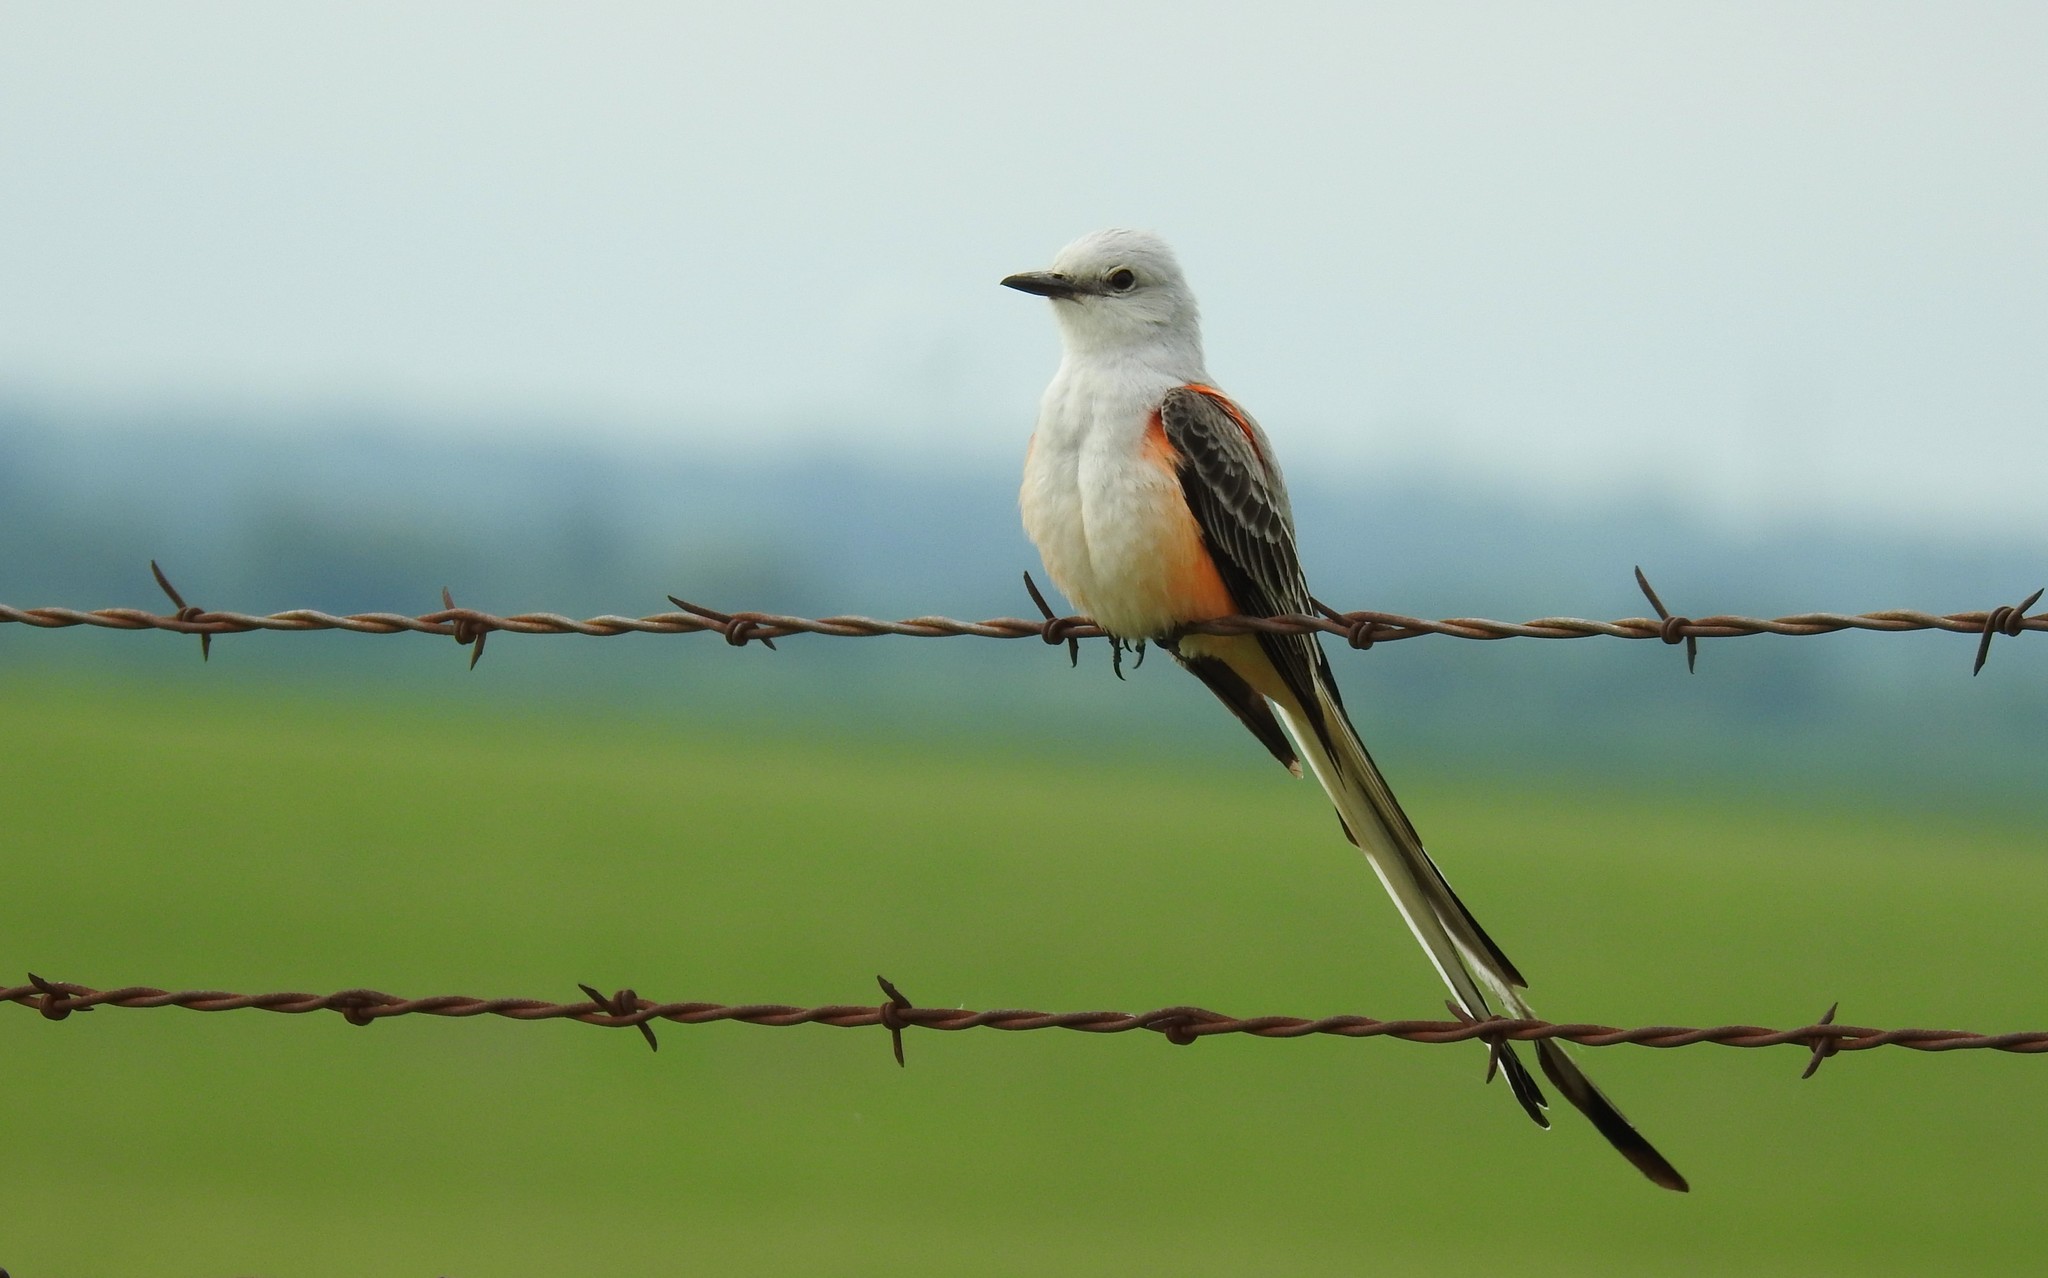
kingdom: Animalia
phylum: Chordata
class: Aves
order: Passeriformes
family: Tyrannidae
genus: Tyrannus
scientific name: Tyrannus forficatus
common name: Scissor-tailed flycatcher
